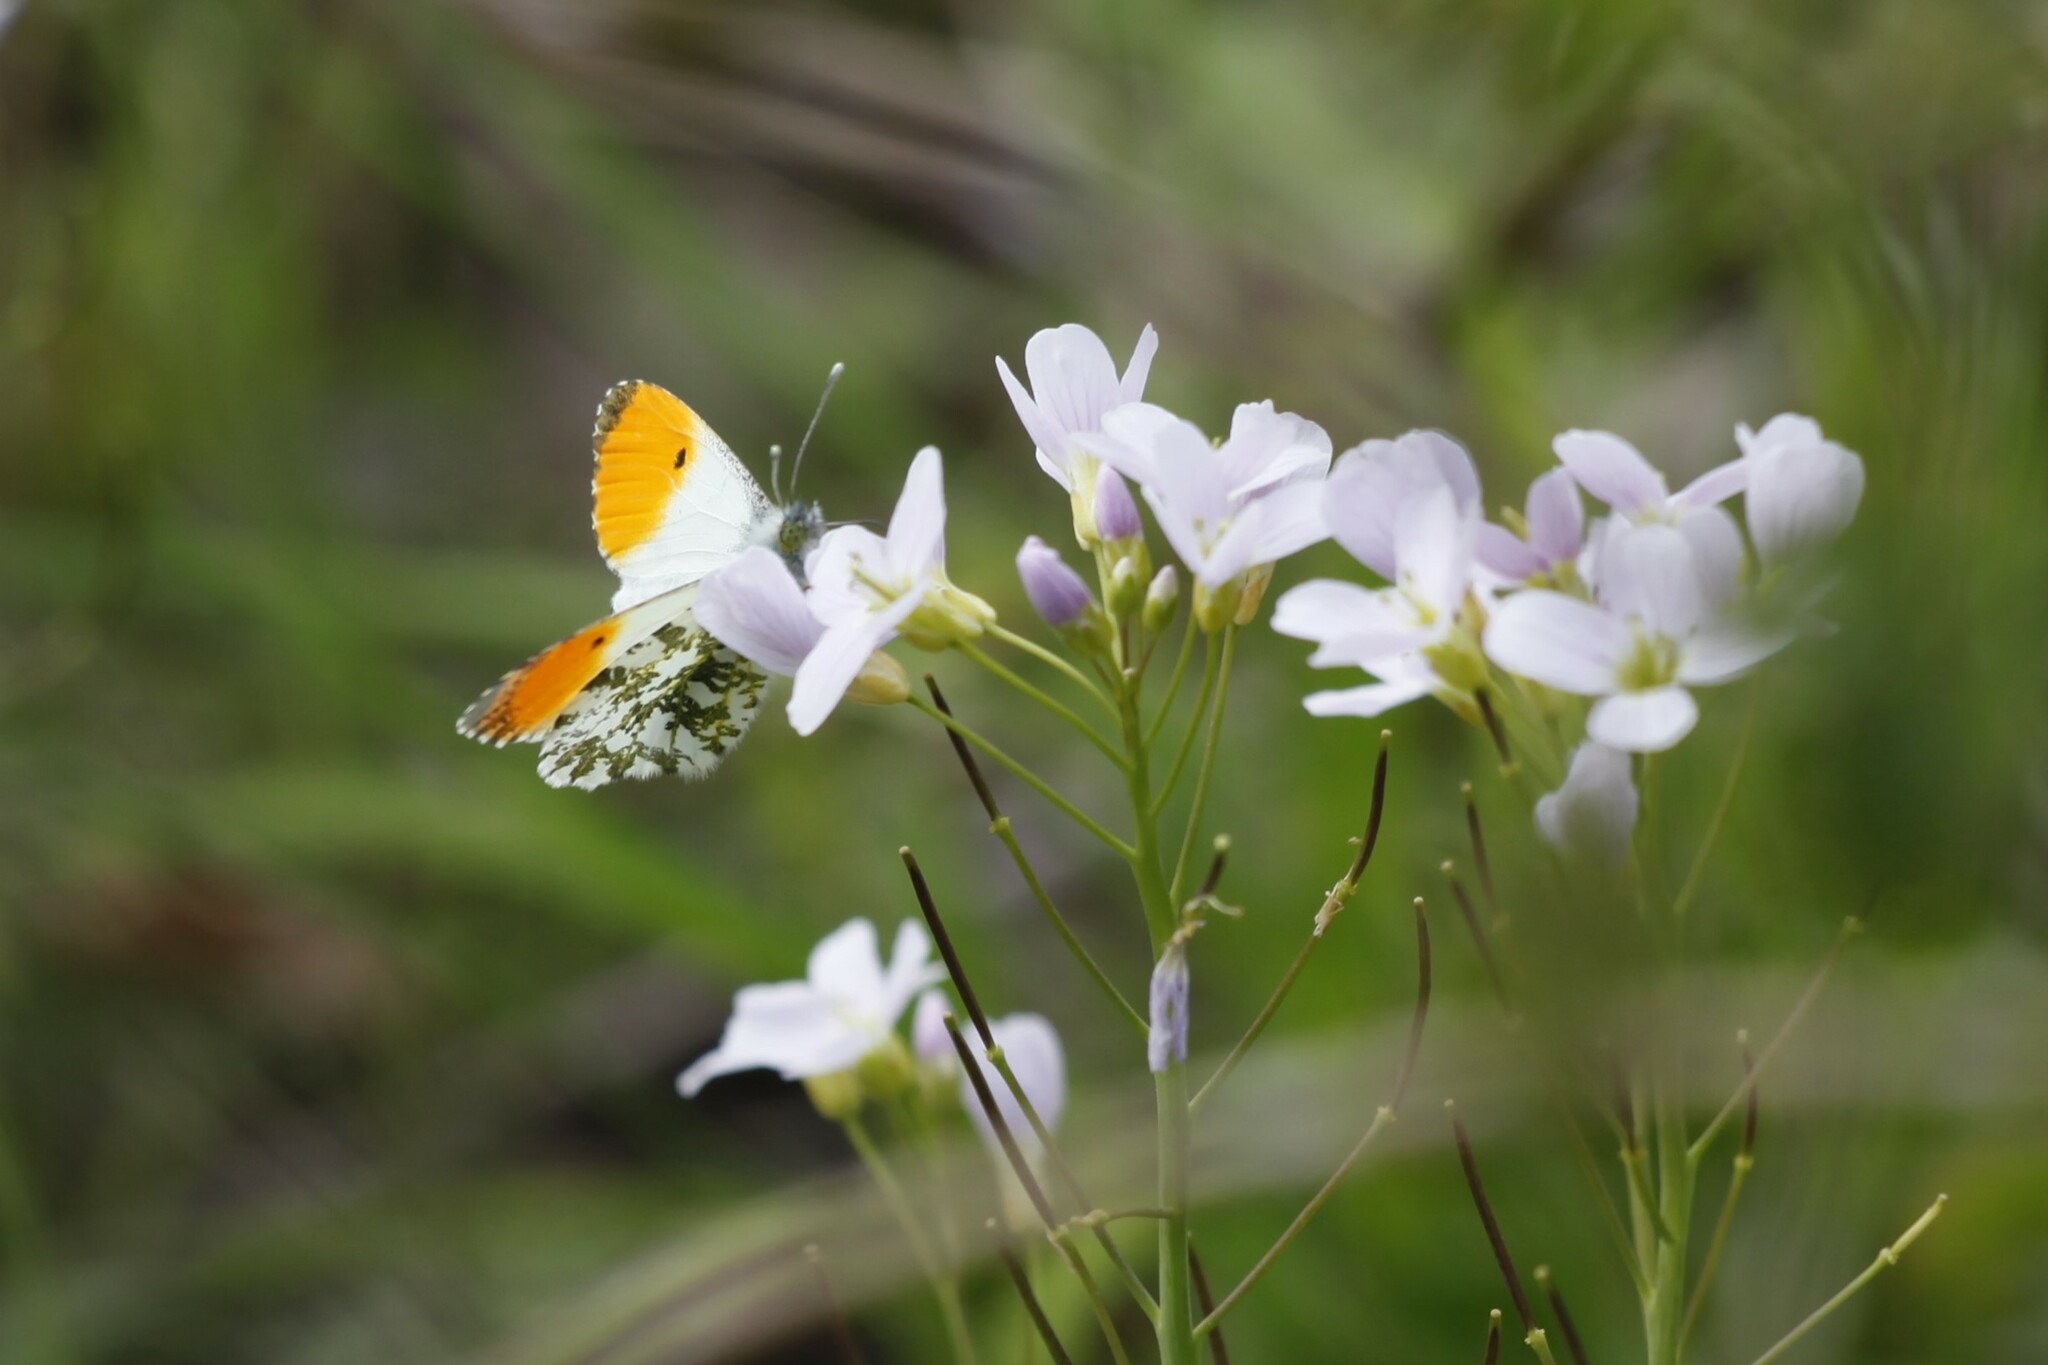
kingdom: Animalia
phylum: Arthropoda
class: Insecta
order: Lepidoptera
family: Pieridae
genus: Anthocharis
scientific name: Anthocharis cardamines
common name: Orange-tip
